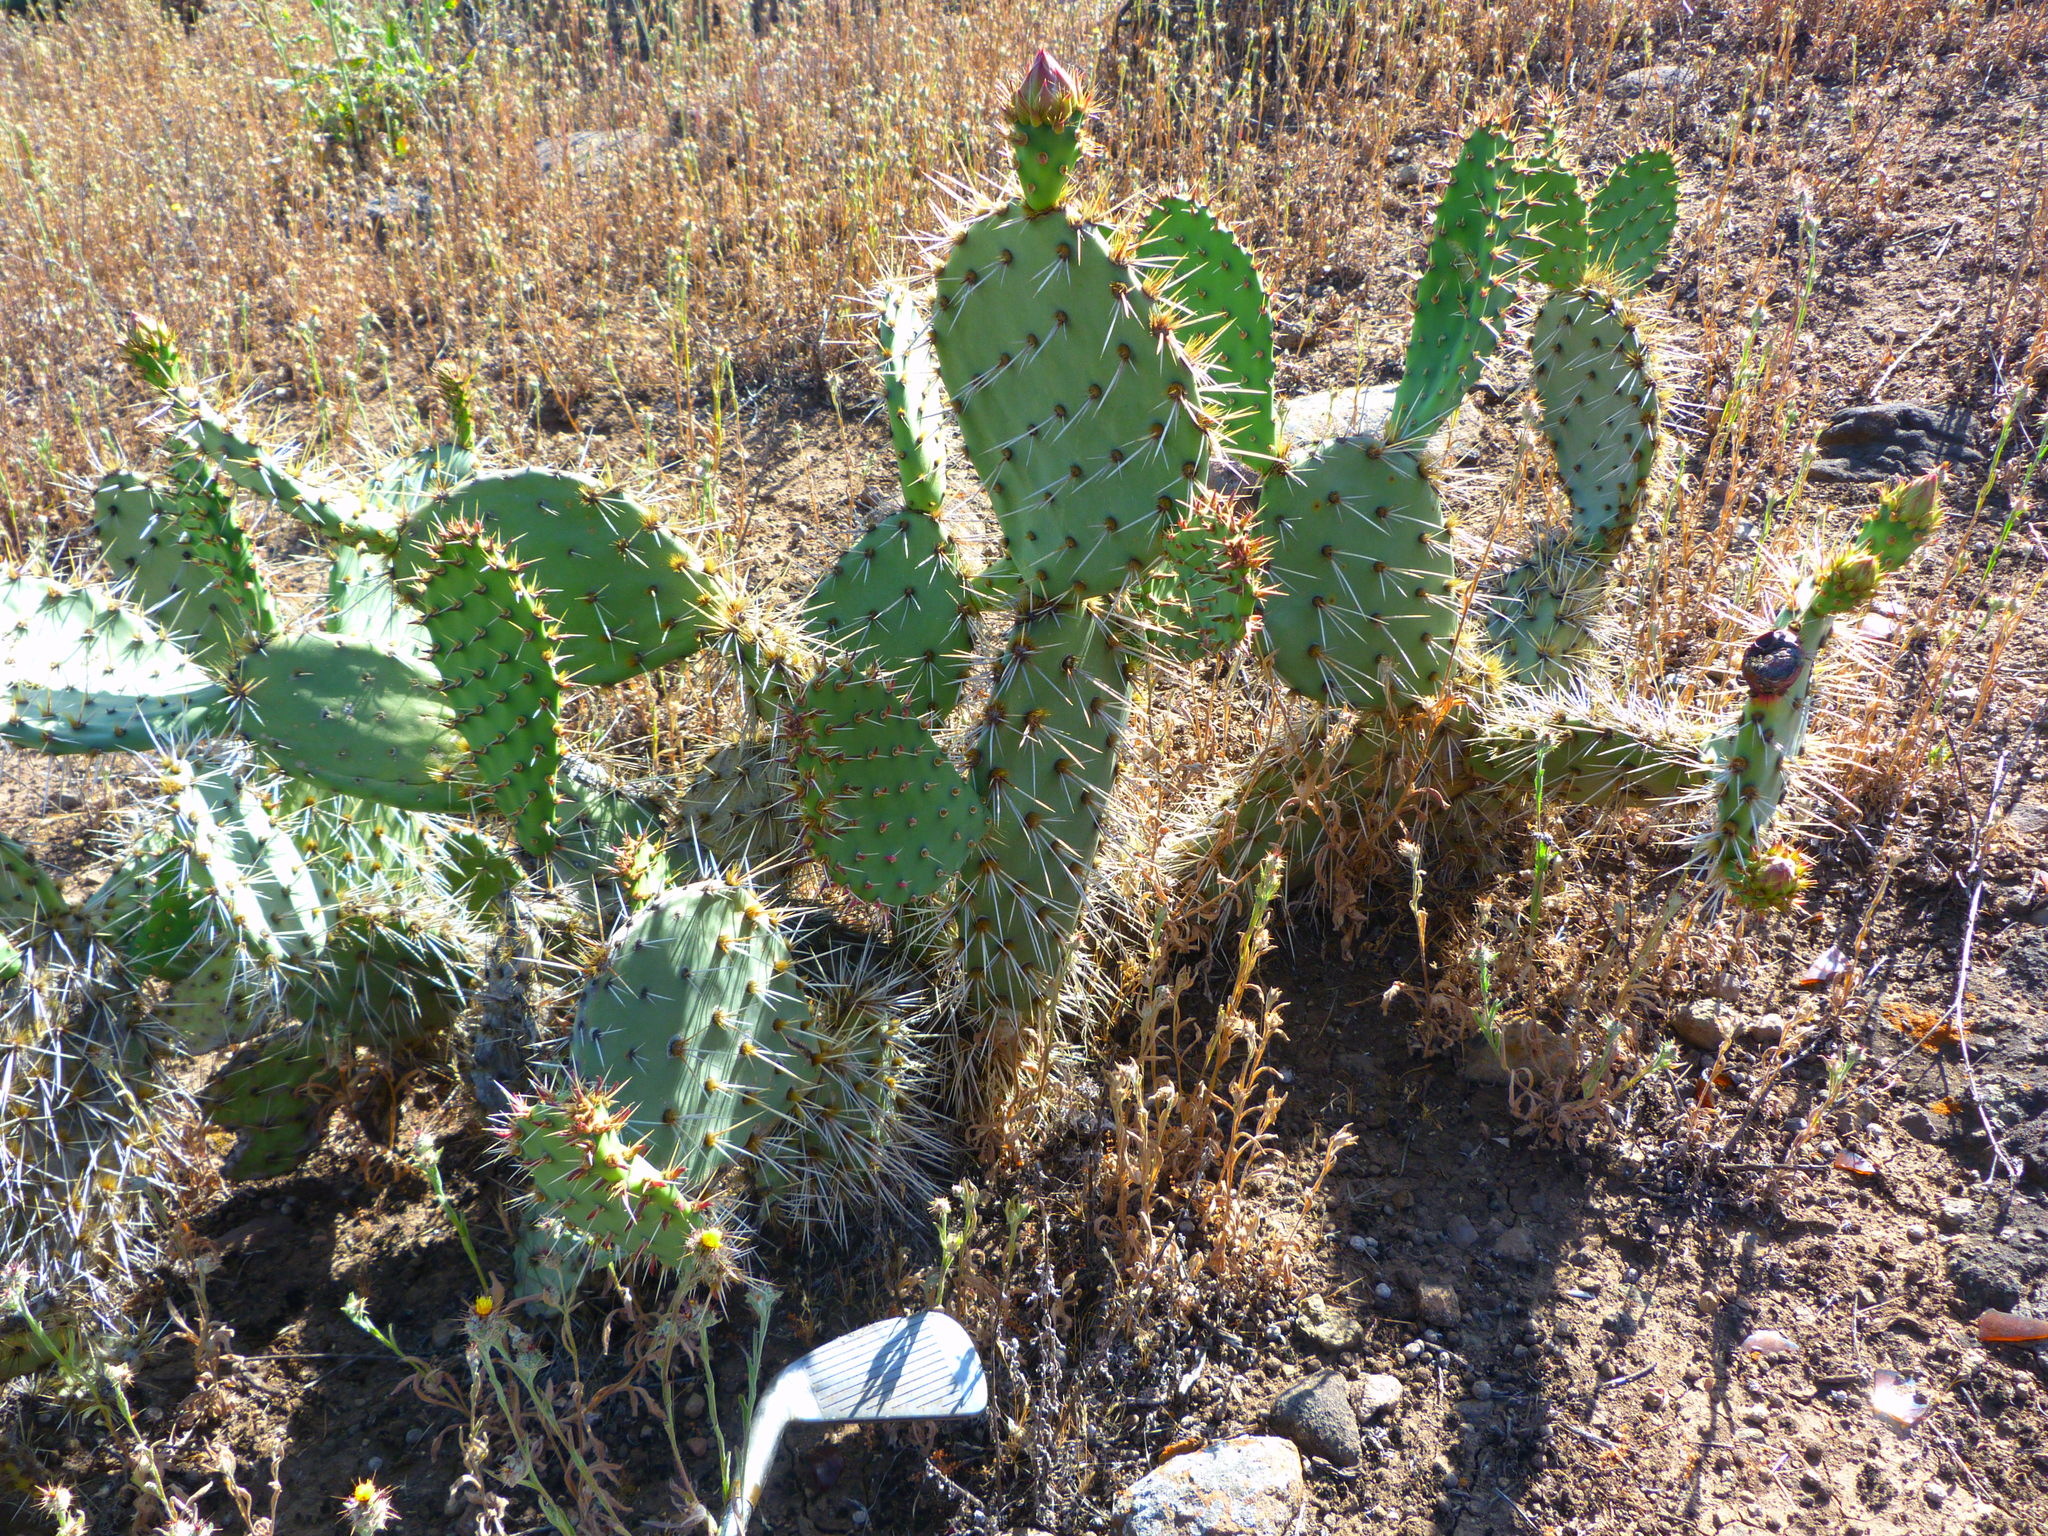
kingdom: Plantae
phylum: Tracheophyta
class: Magnoliopsida
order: Caryophyllales
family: Cactaceae
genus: Opuntia
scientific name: Opuntia littoralis
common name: Coastal prickly-pear
